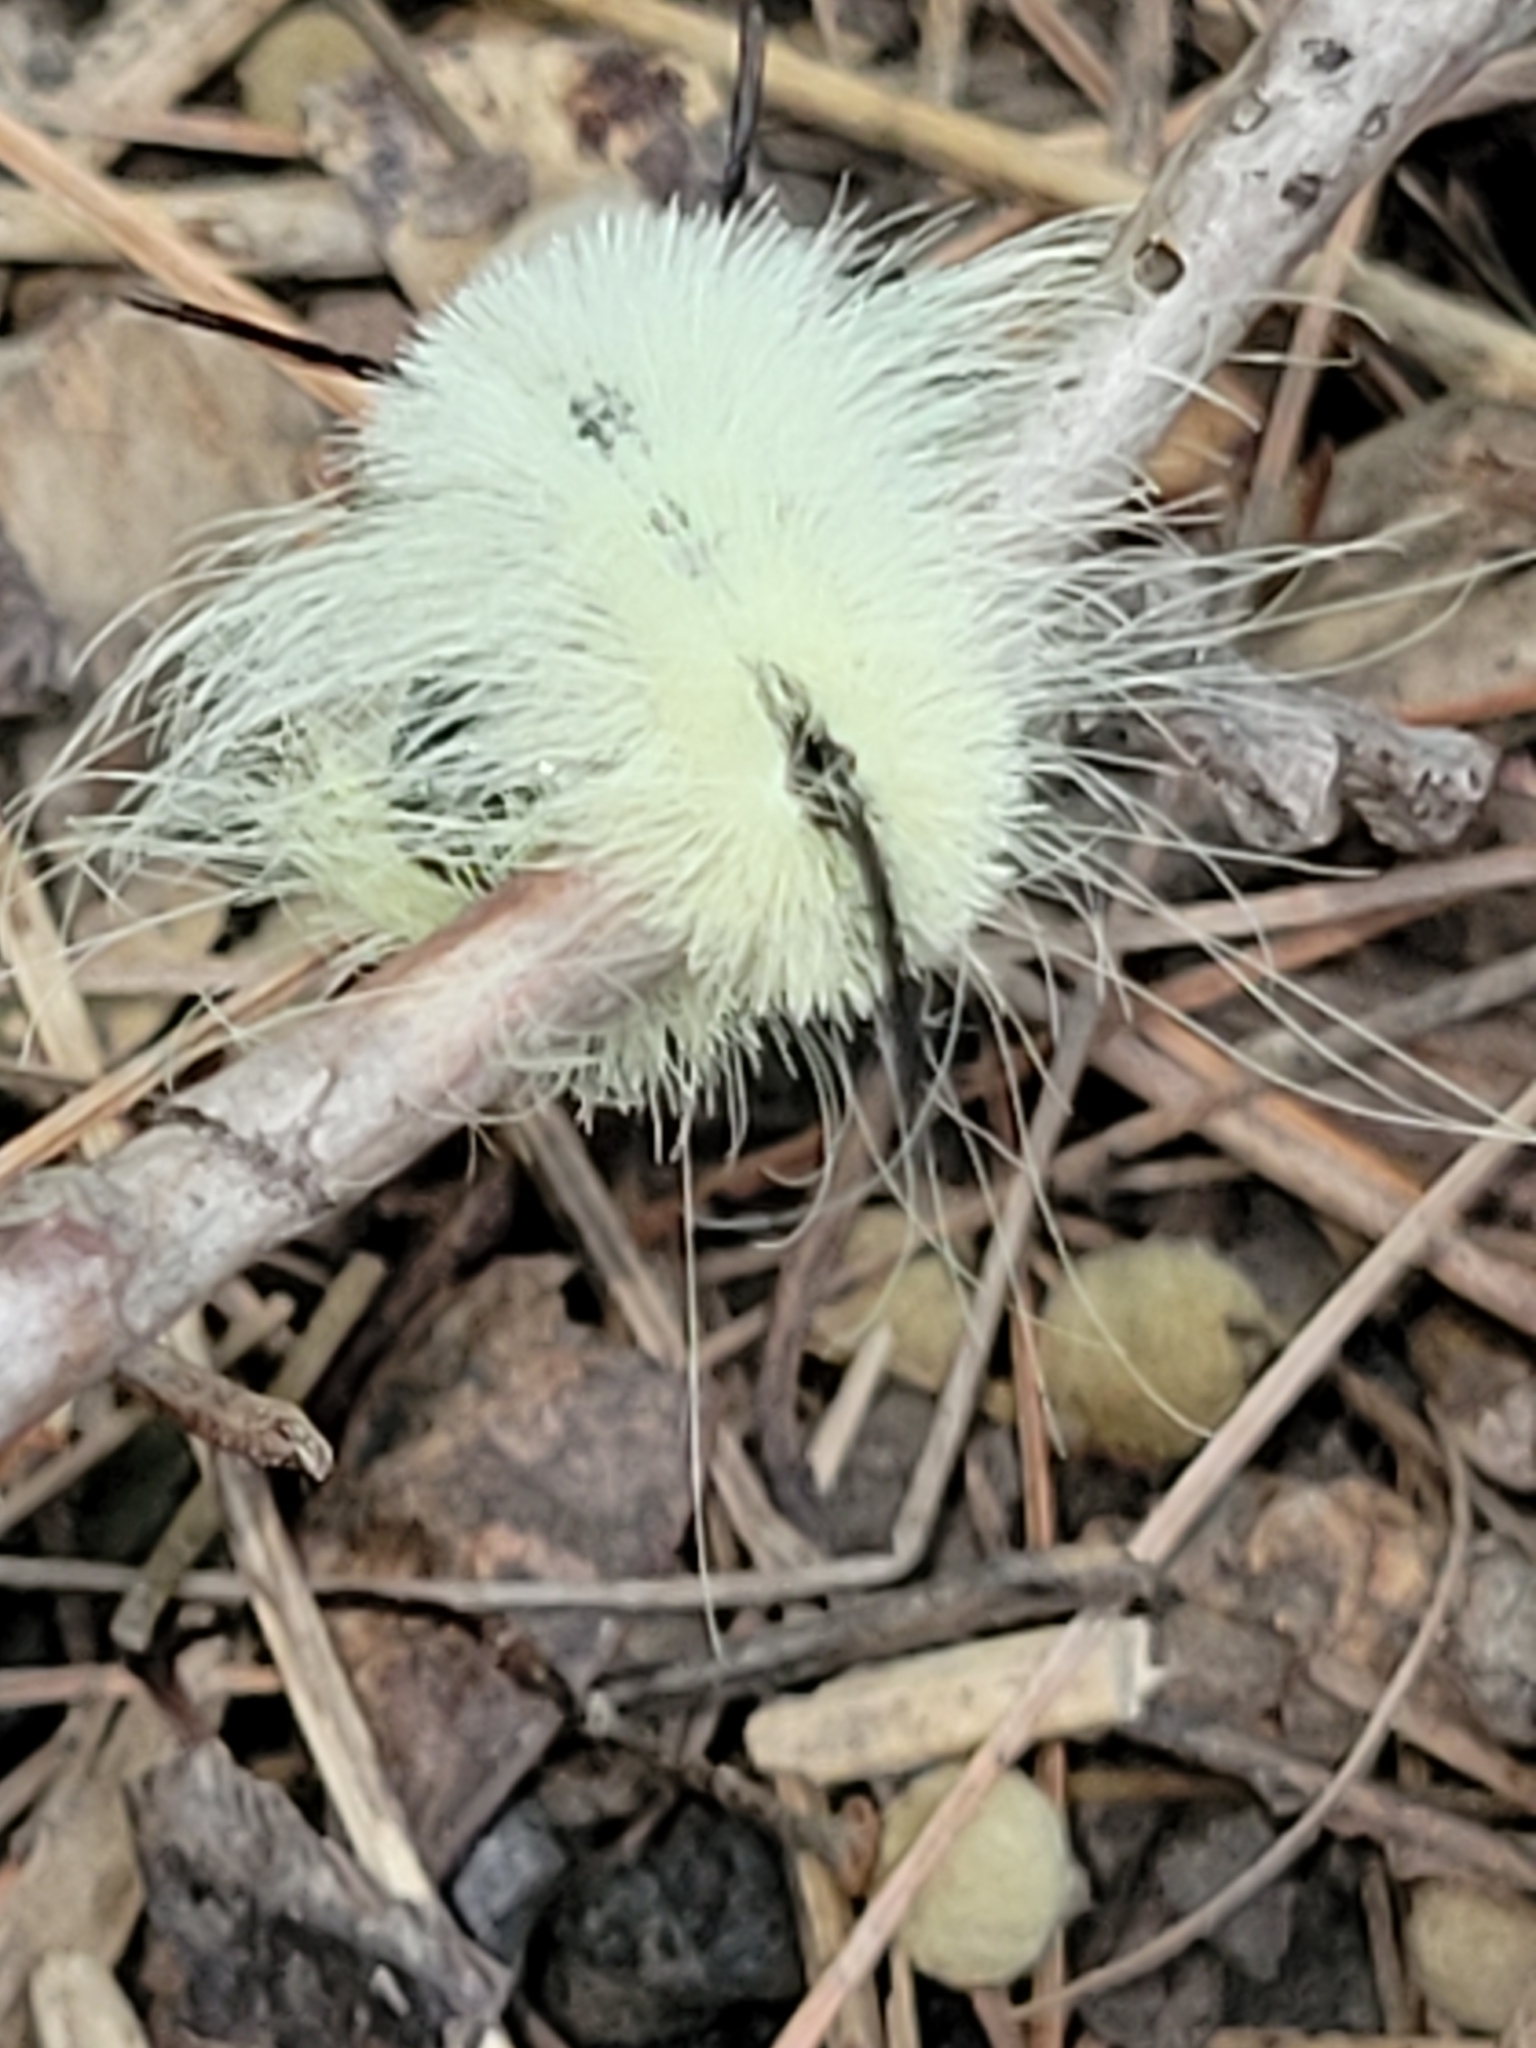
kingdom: Animalia
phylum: Arthropoda
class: Insecta
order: Lepidoptera
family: Noctuidae
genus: Acronicta
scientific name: Acronicta americana
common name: American dagger
